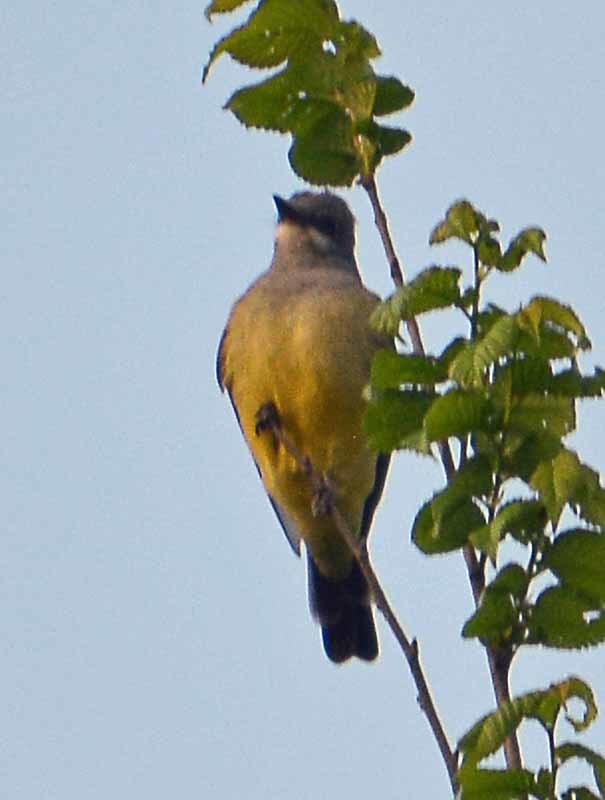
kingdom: Animalia
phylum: Chordata
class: Aves
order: Passeriformes
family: Tyrannidae
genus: Tyrannus
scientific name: Tyrannus vociferans
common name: Cassin's kingbird
